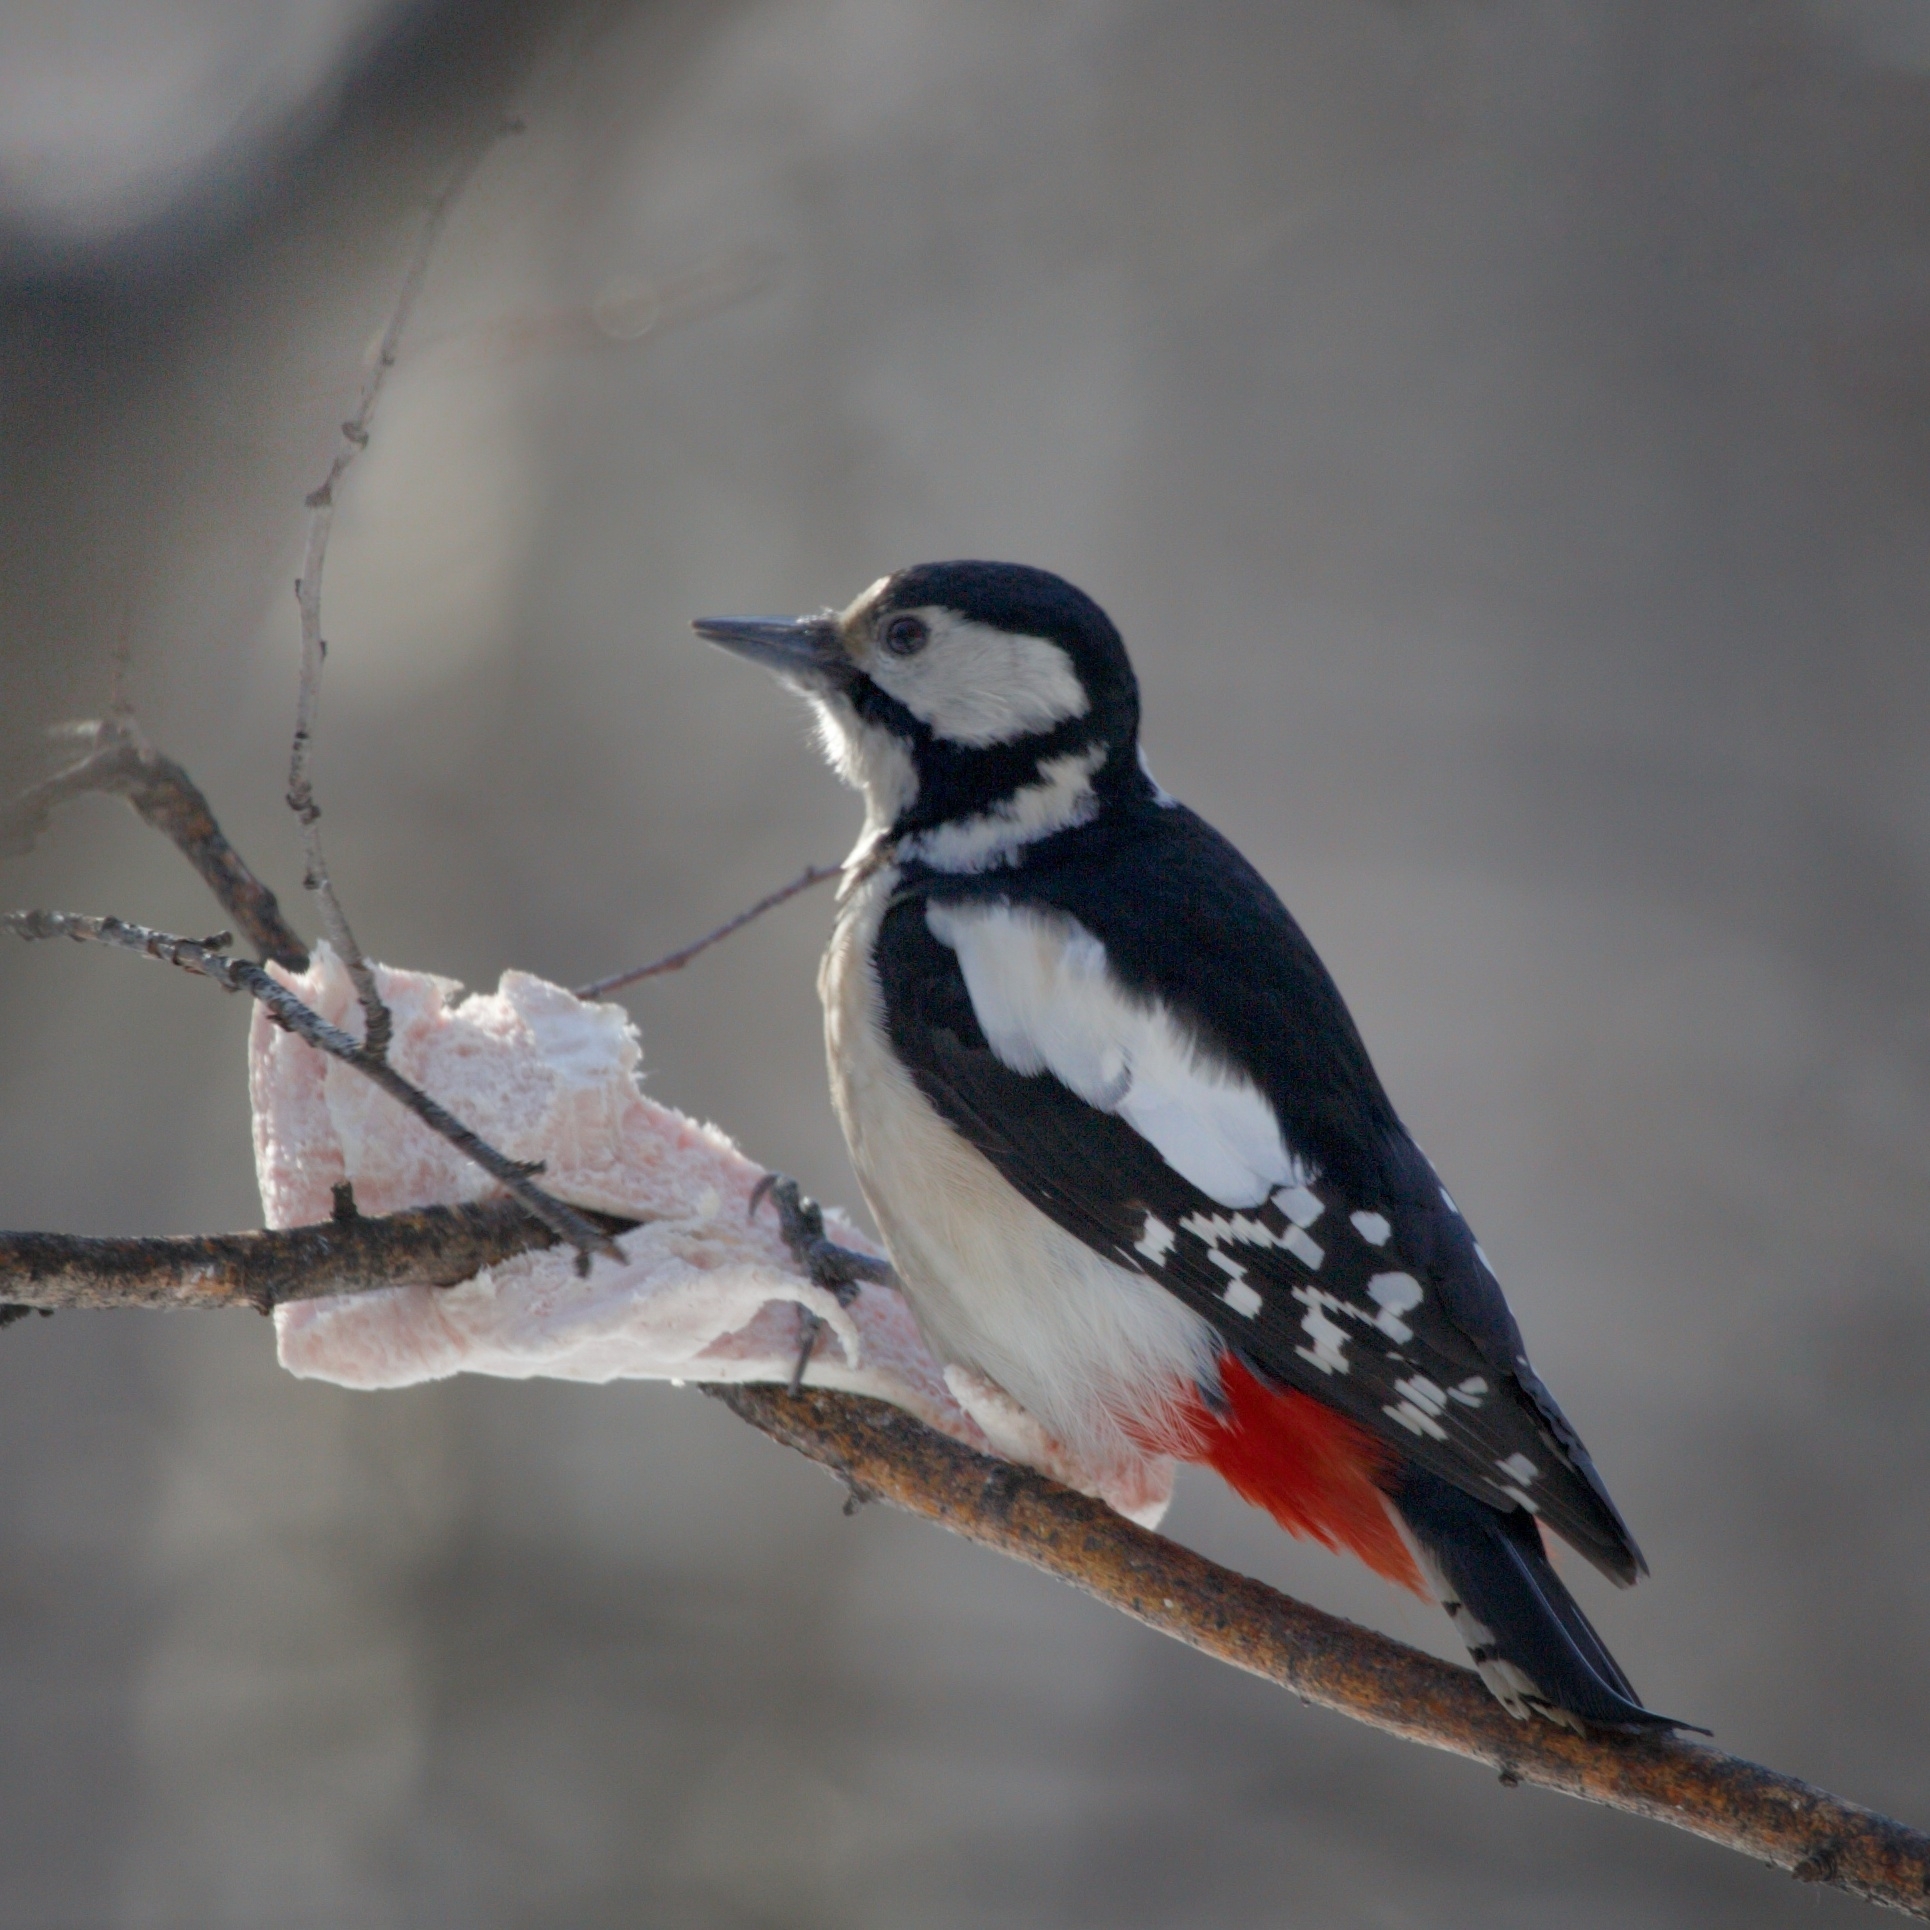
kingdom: Animalia
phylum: Chordata
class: Aves
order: Piciformes
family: Picidae
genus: Dendrocopos
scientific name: Dendrocopos major
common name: Great spotted woodpecker
